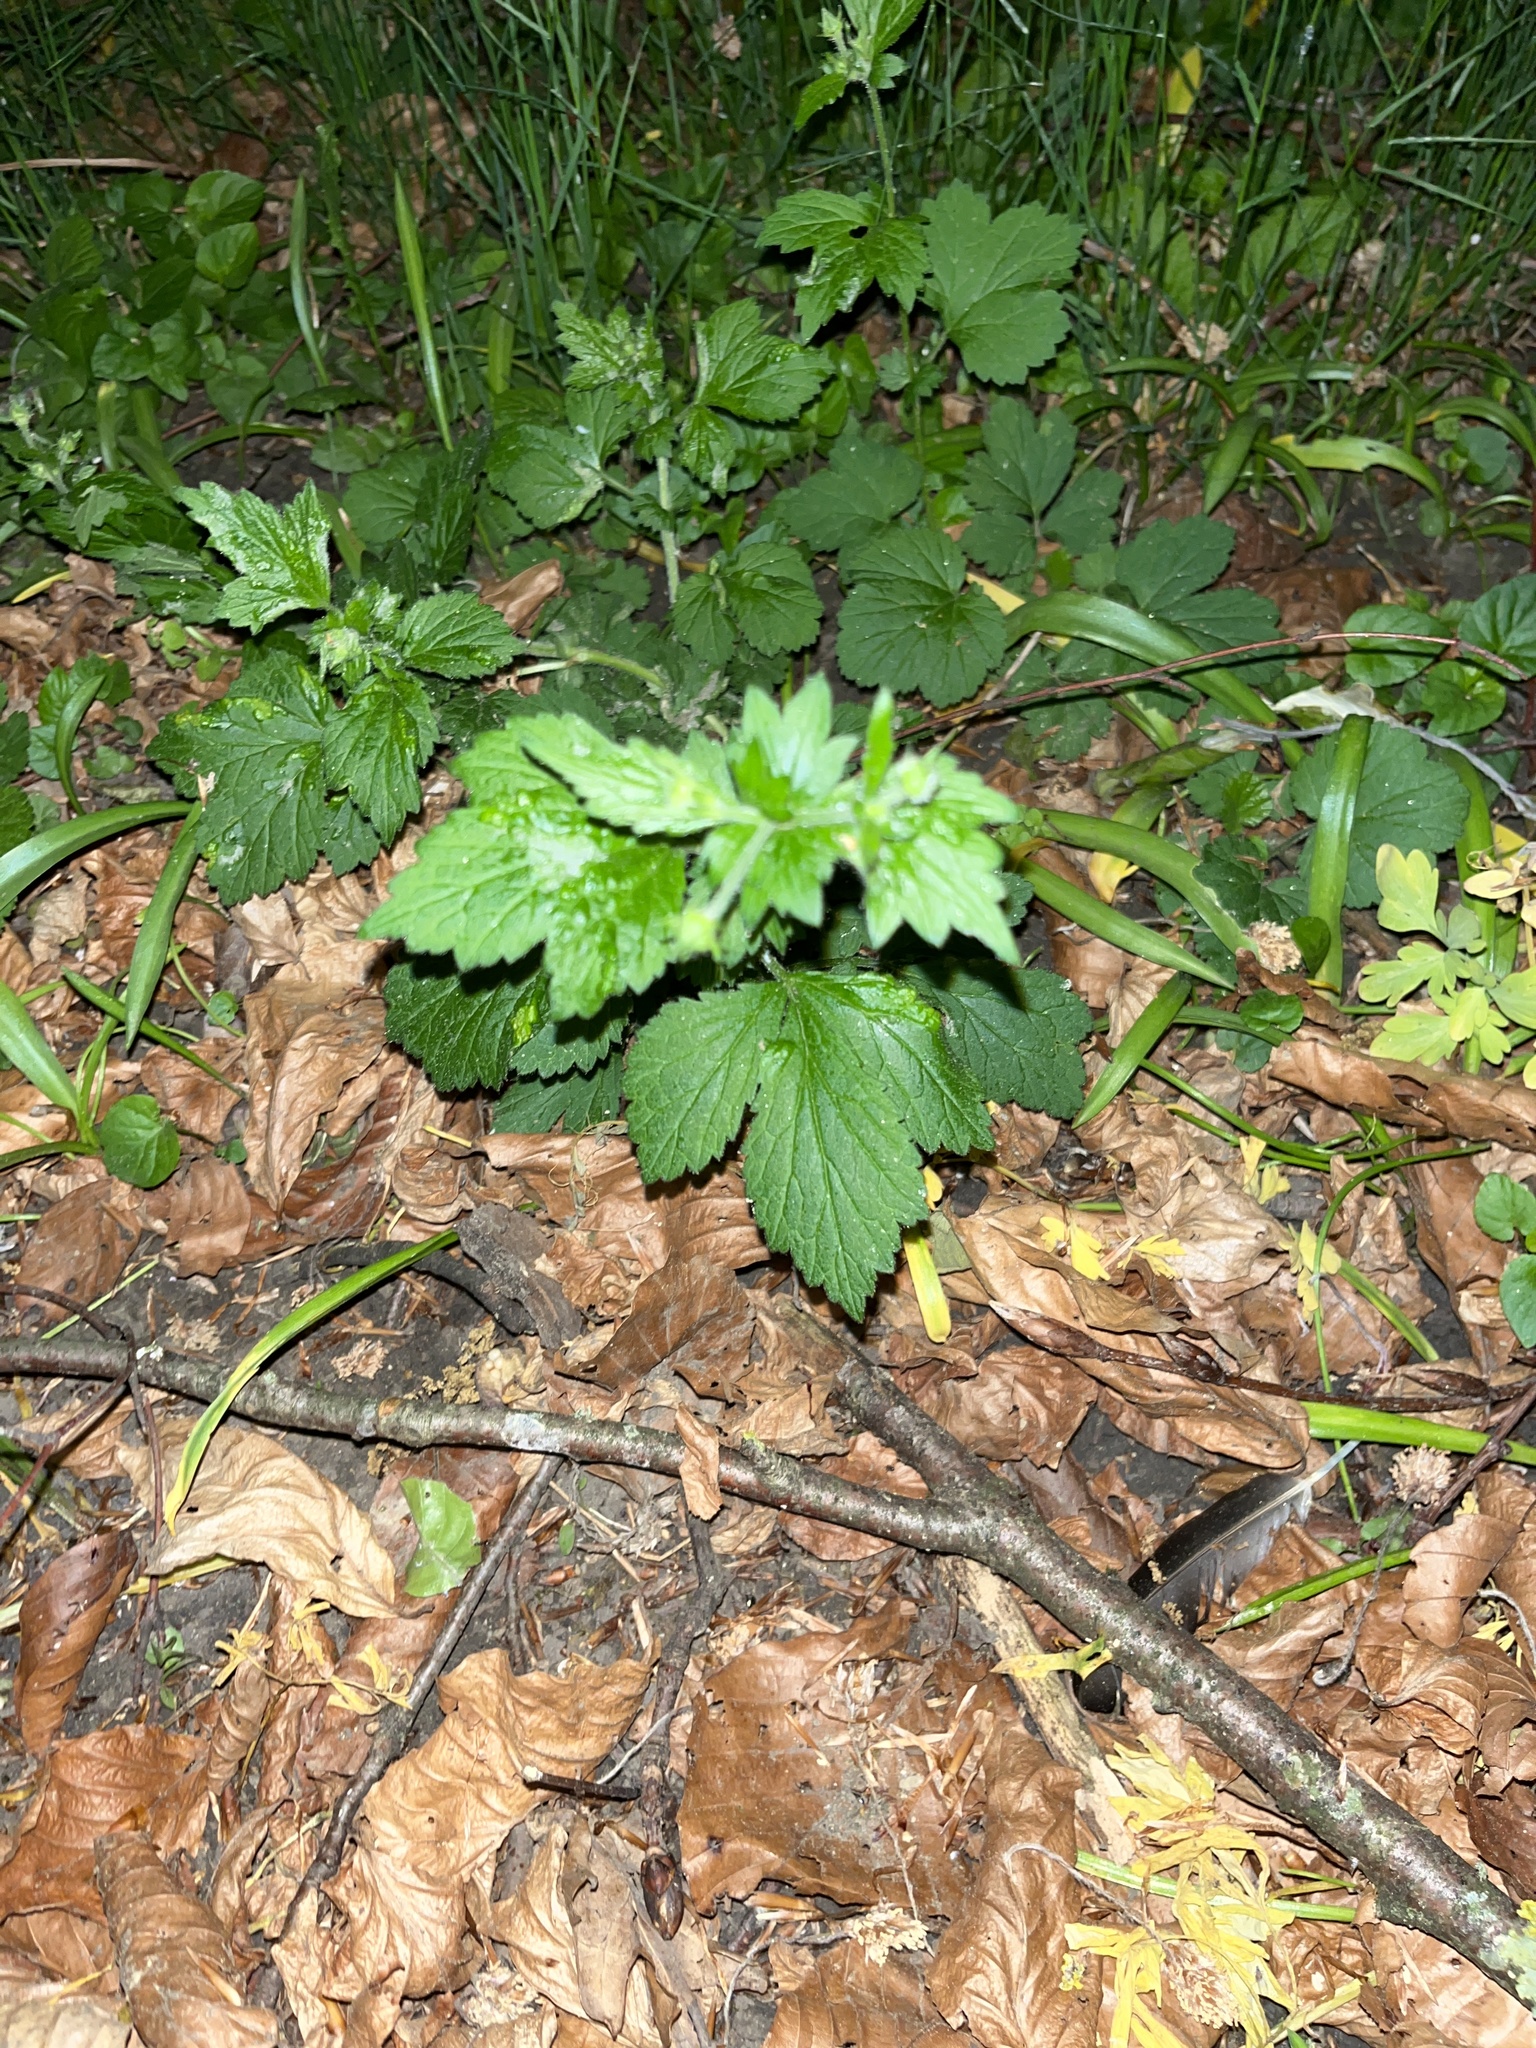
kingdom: Plantae
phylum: Tracheophyta
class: Magnoliopsida
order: Rosales
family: Rosaceae
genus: Geum
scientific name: Geum urbanum
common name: Wood avens
